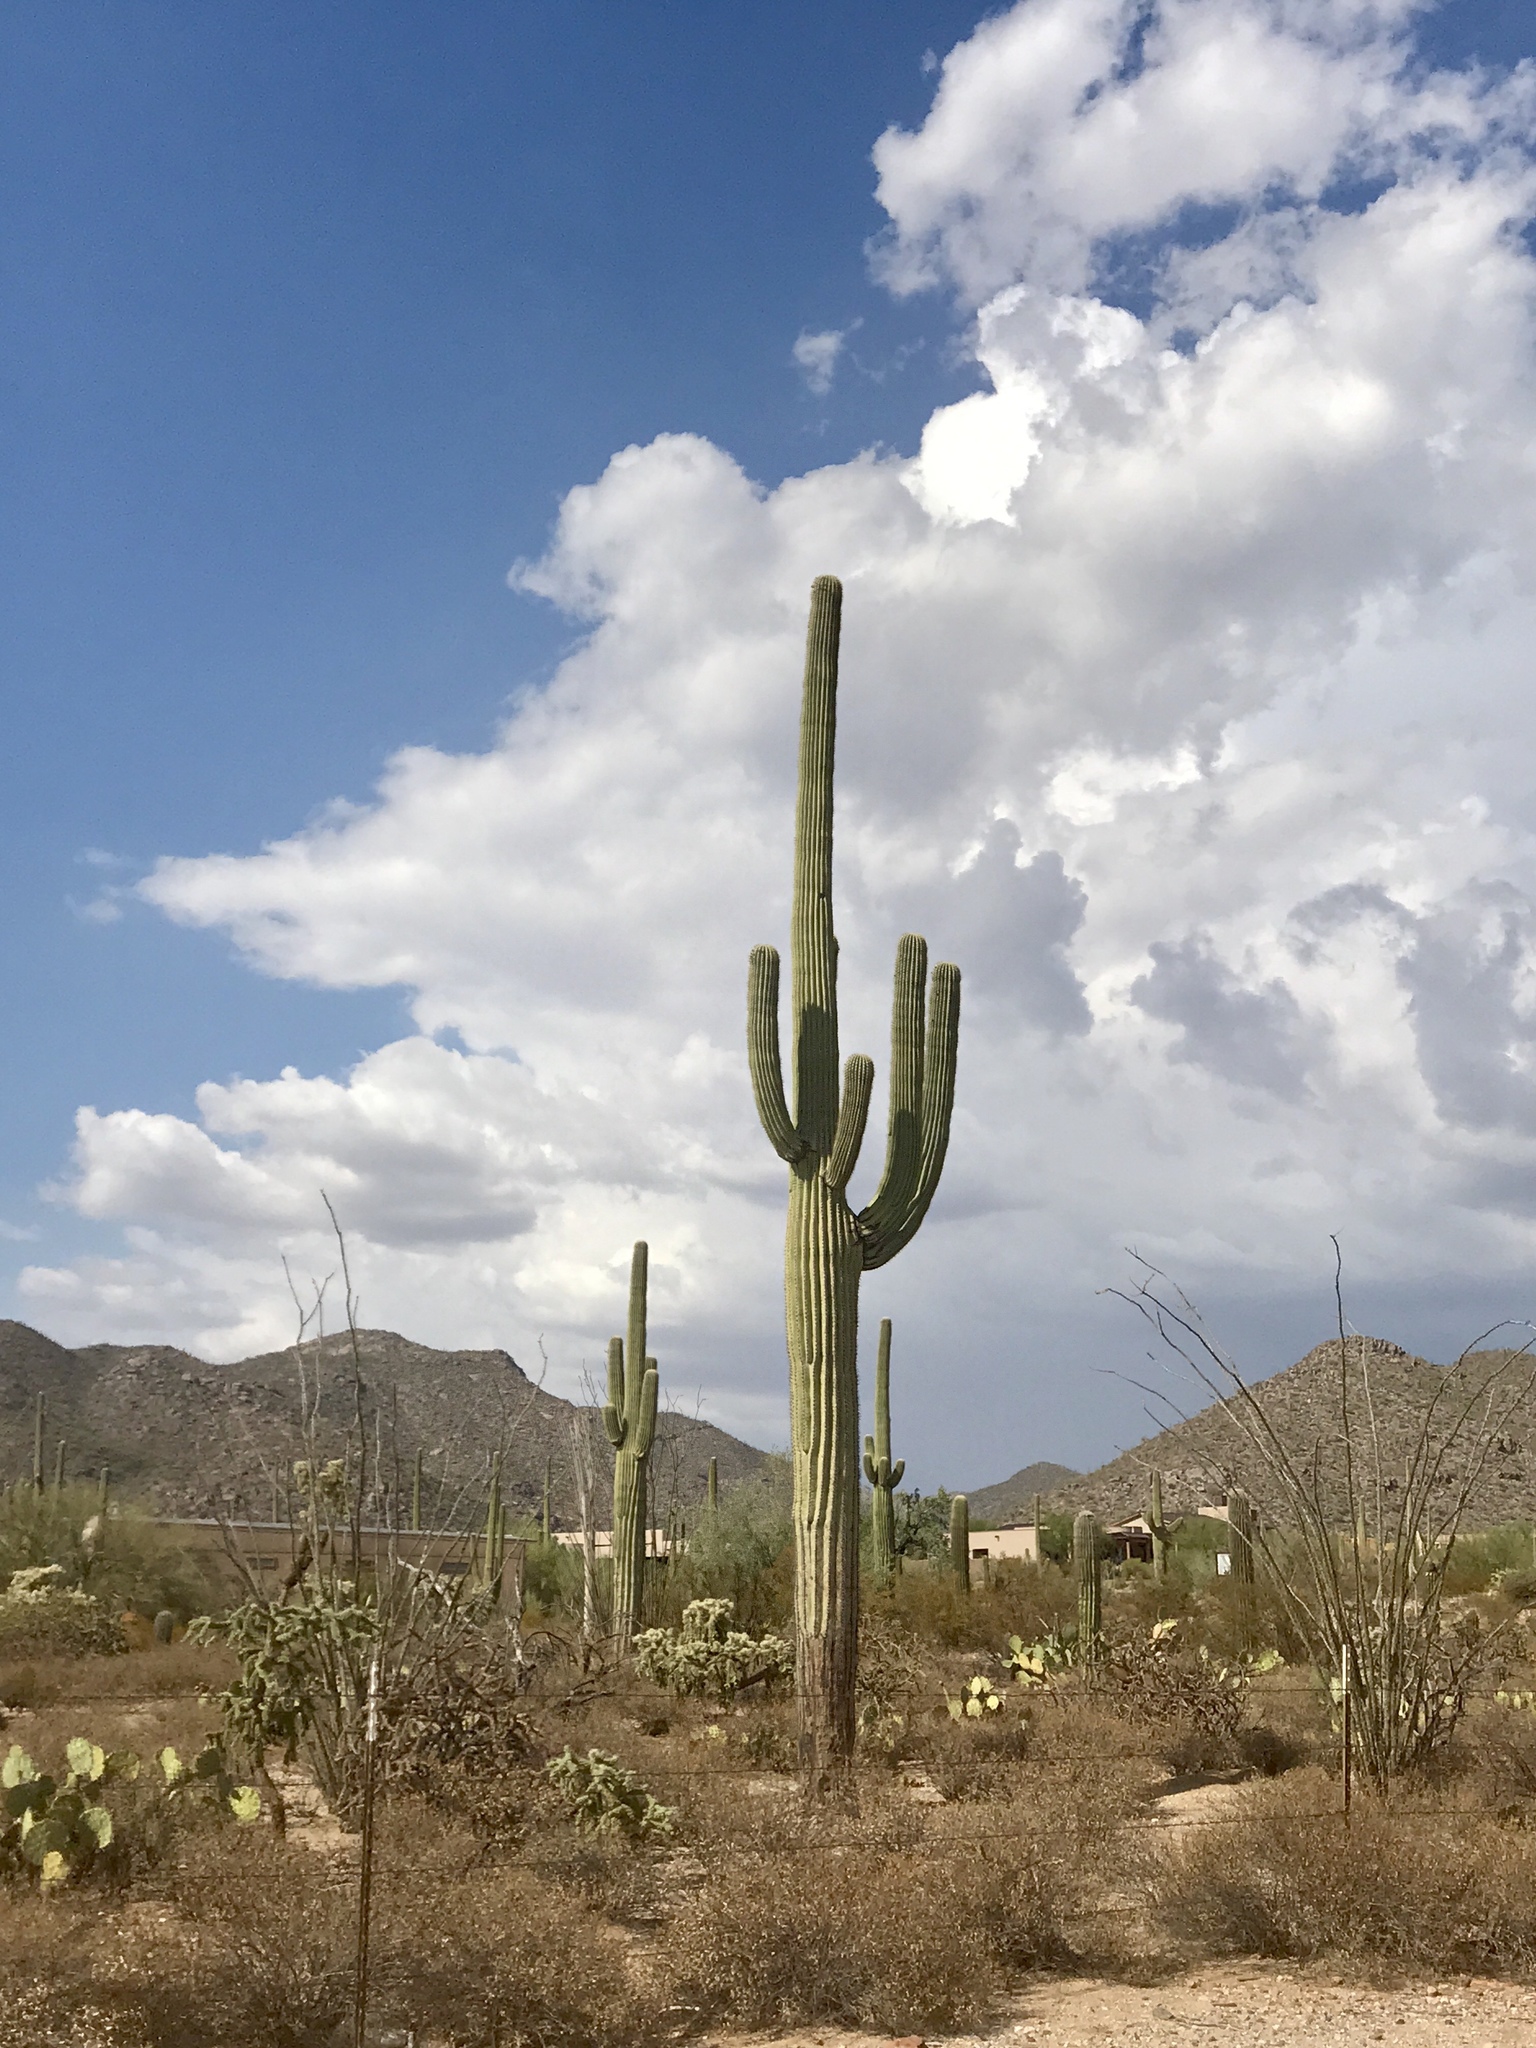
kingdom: Plantae
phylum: Tracheophyta
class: Magnoliopsida
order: Caryophyllales
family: Cactaceae
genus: Carnegiea
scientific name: Carnegiea gigantea
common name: Saguaro
